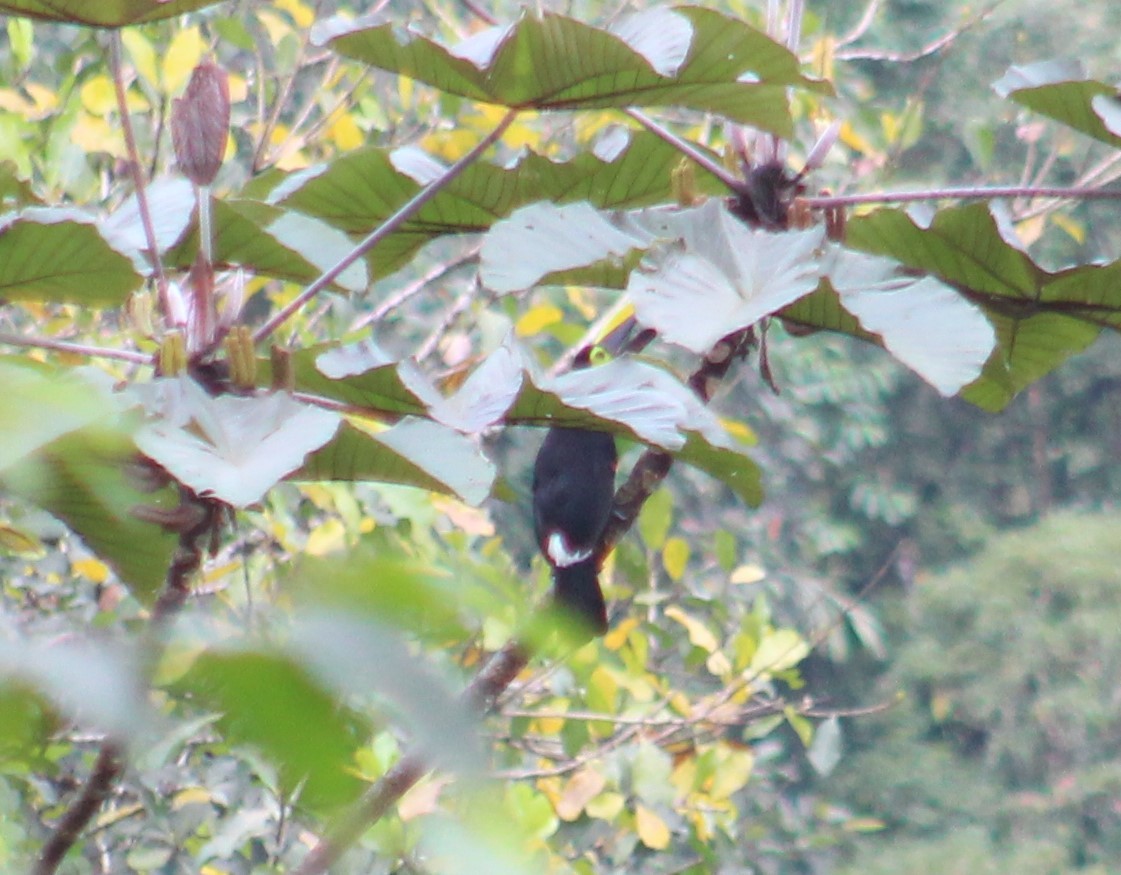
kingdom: Animalia
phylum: Chordata
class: Aves
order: Piciformes
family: Ramphastidae
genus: Ramphastos
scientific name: Ramphastos brevis
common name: Choco toucan
